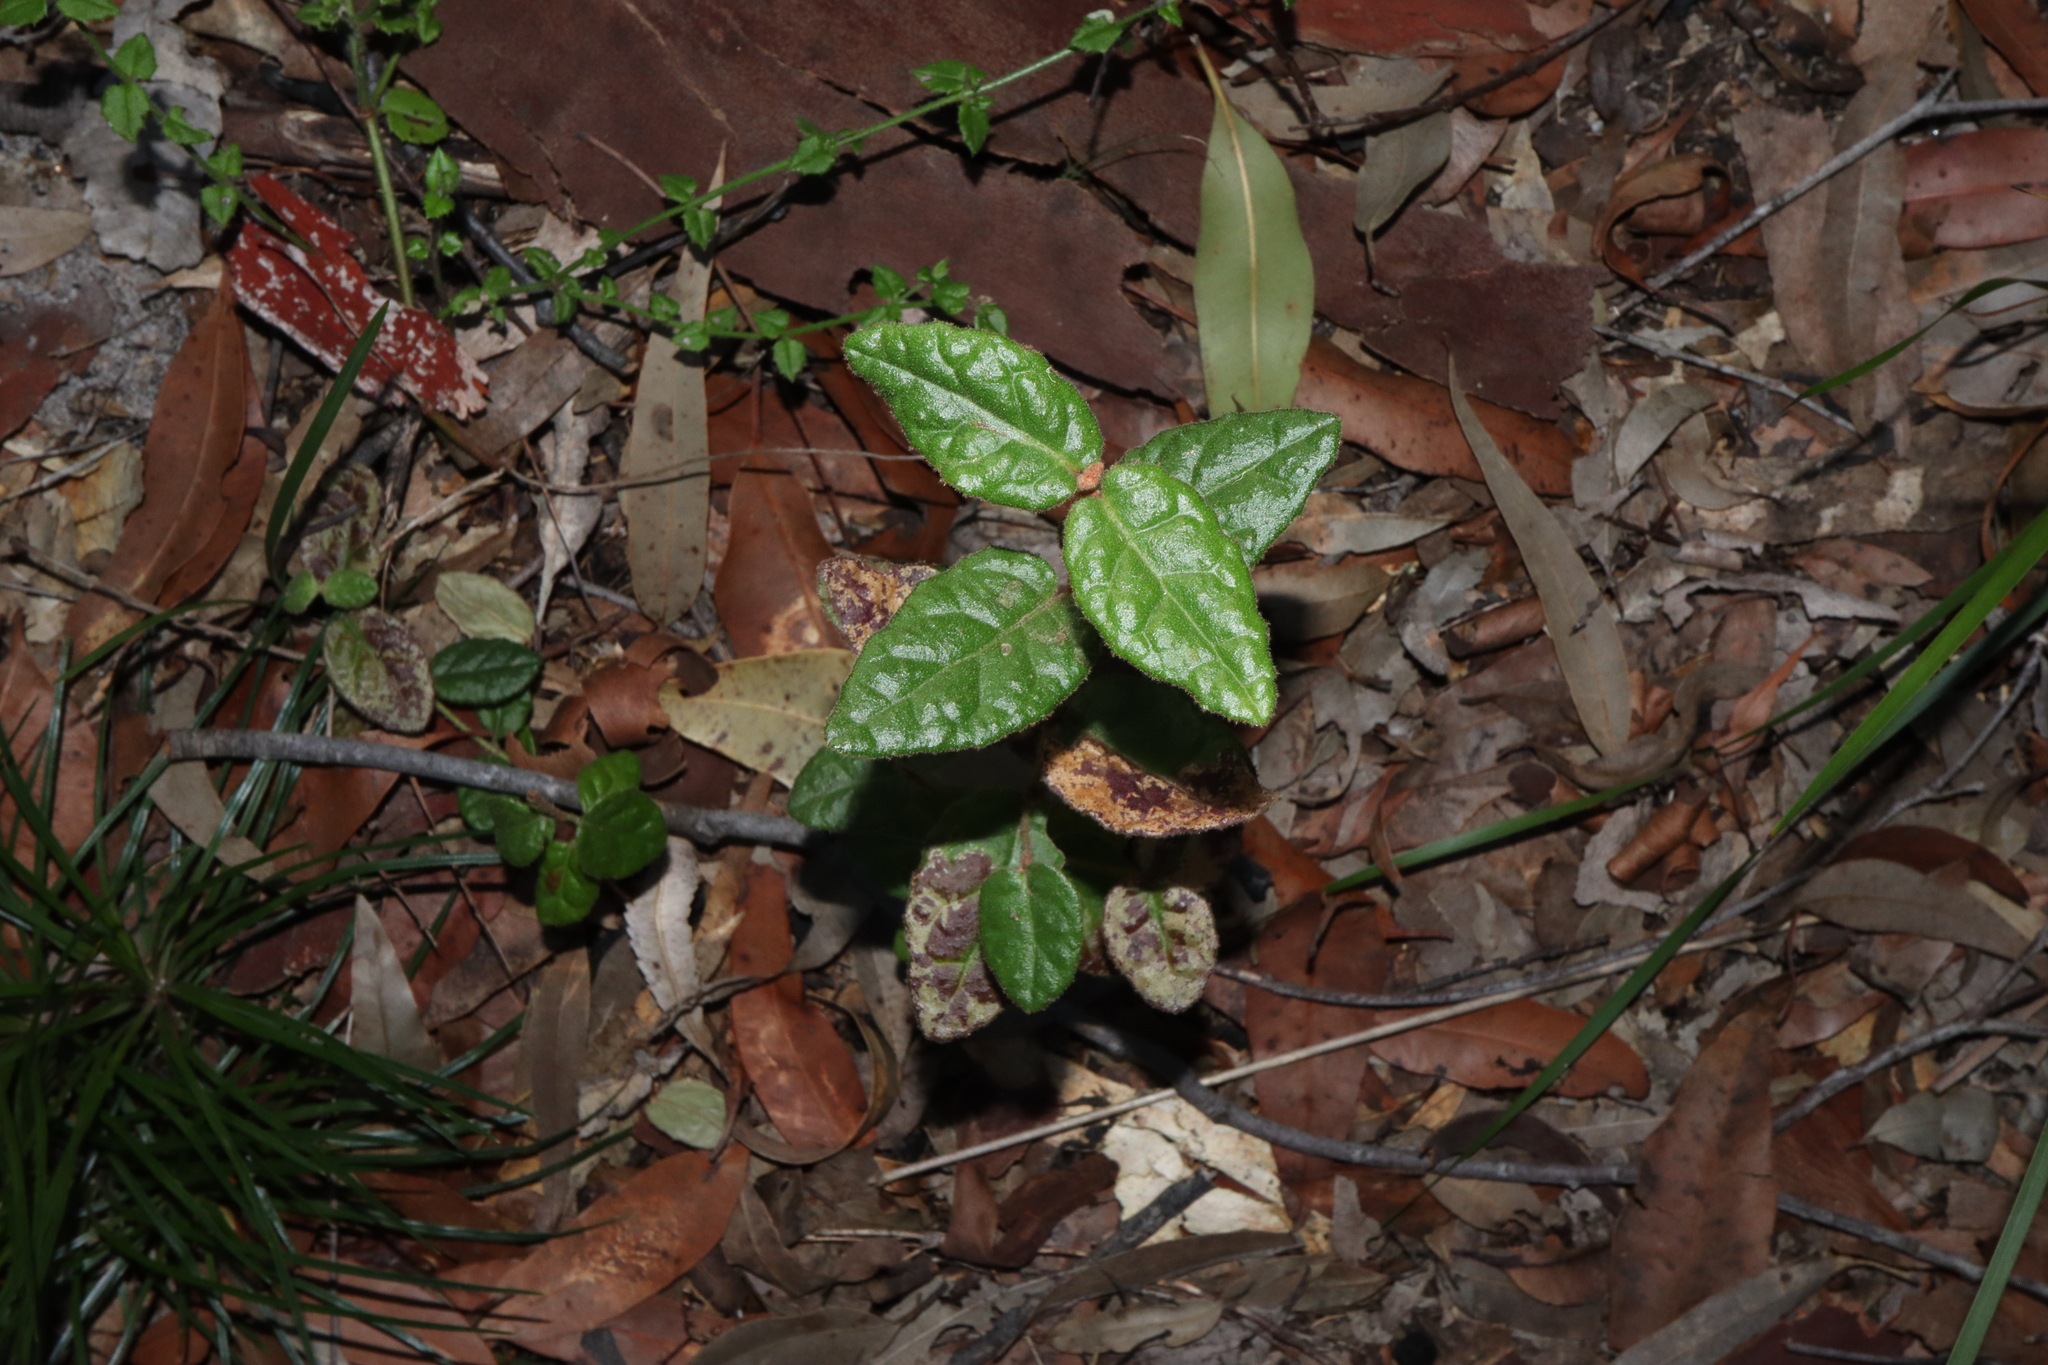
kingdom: Plantae
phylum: Tracheophyta
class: Magnoliopsida
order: Sapindales
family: Rutaceae
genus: Correa
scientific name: Correa reflexa
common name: Common correa
